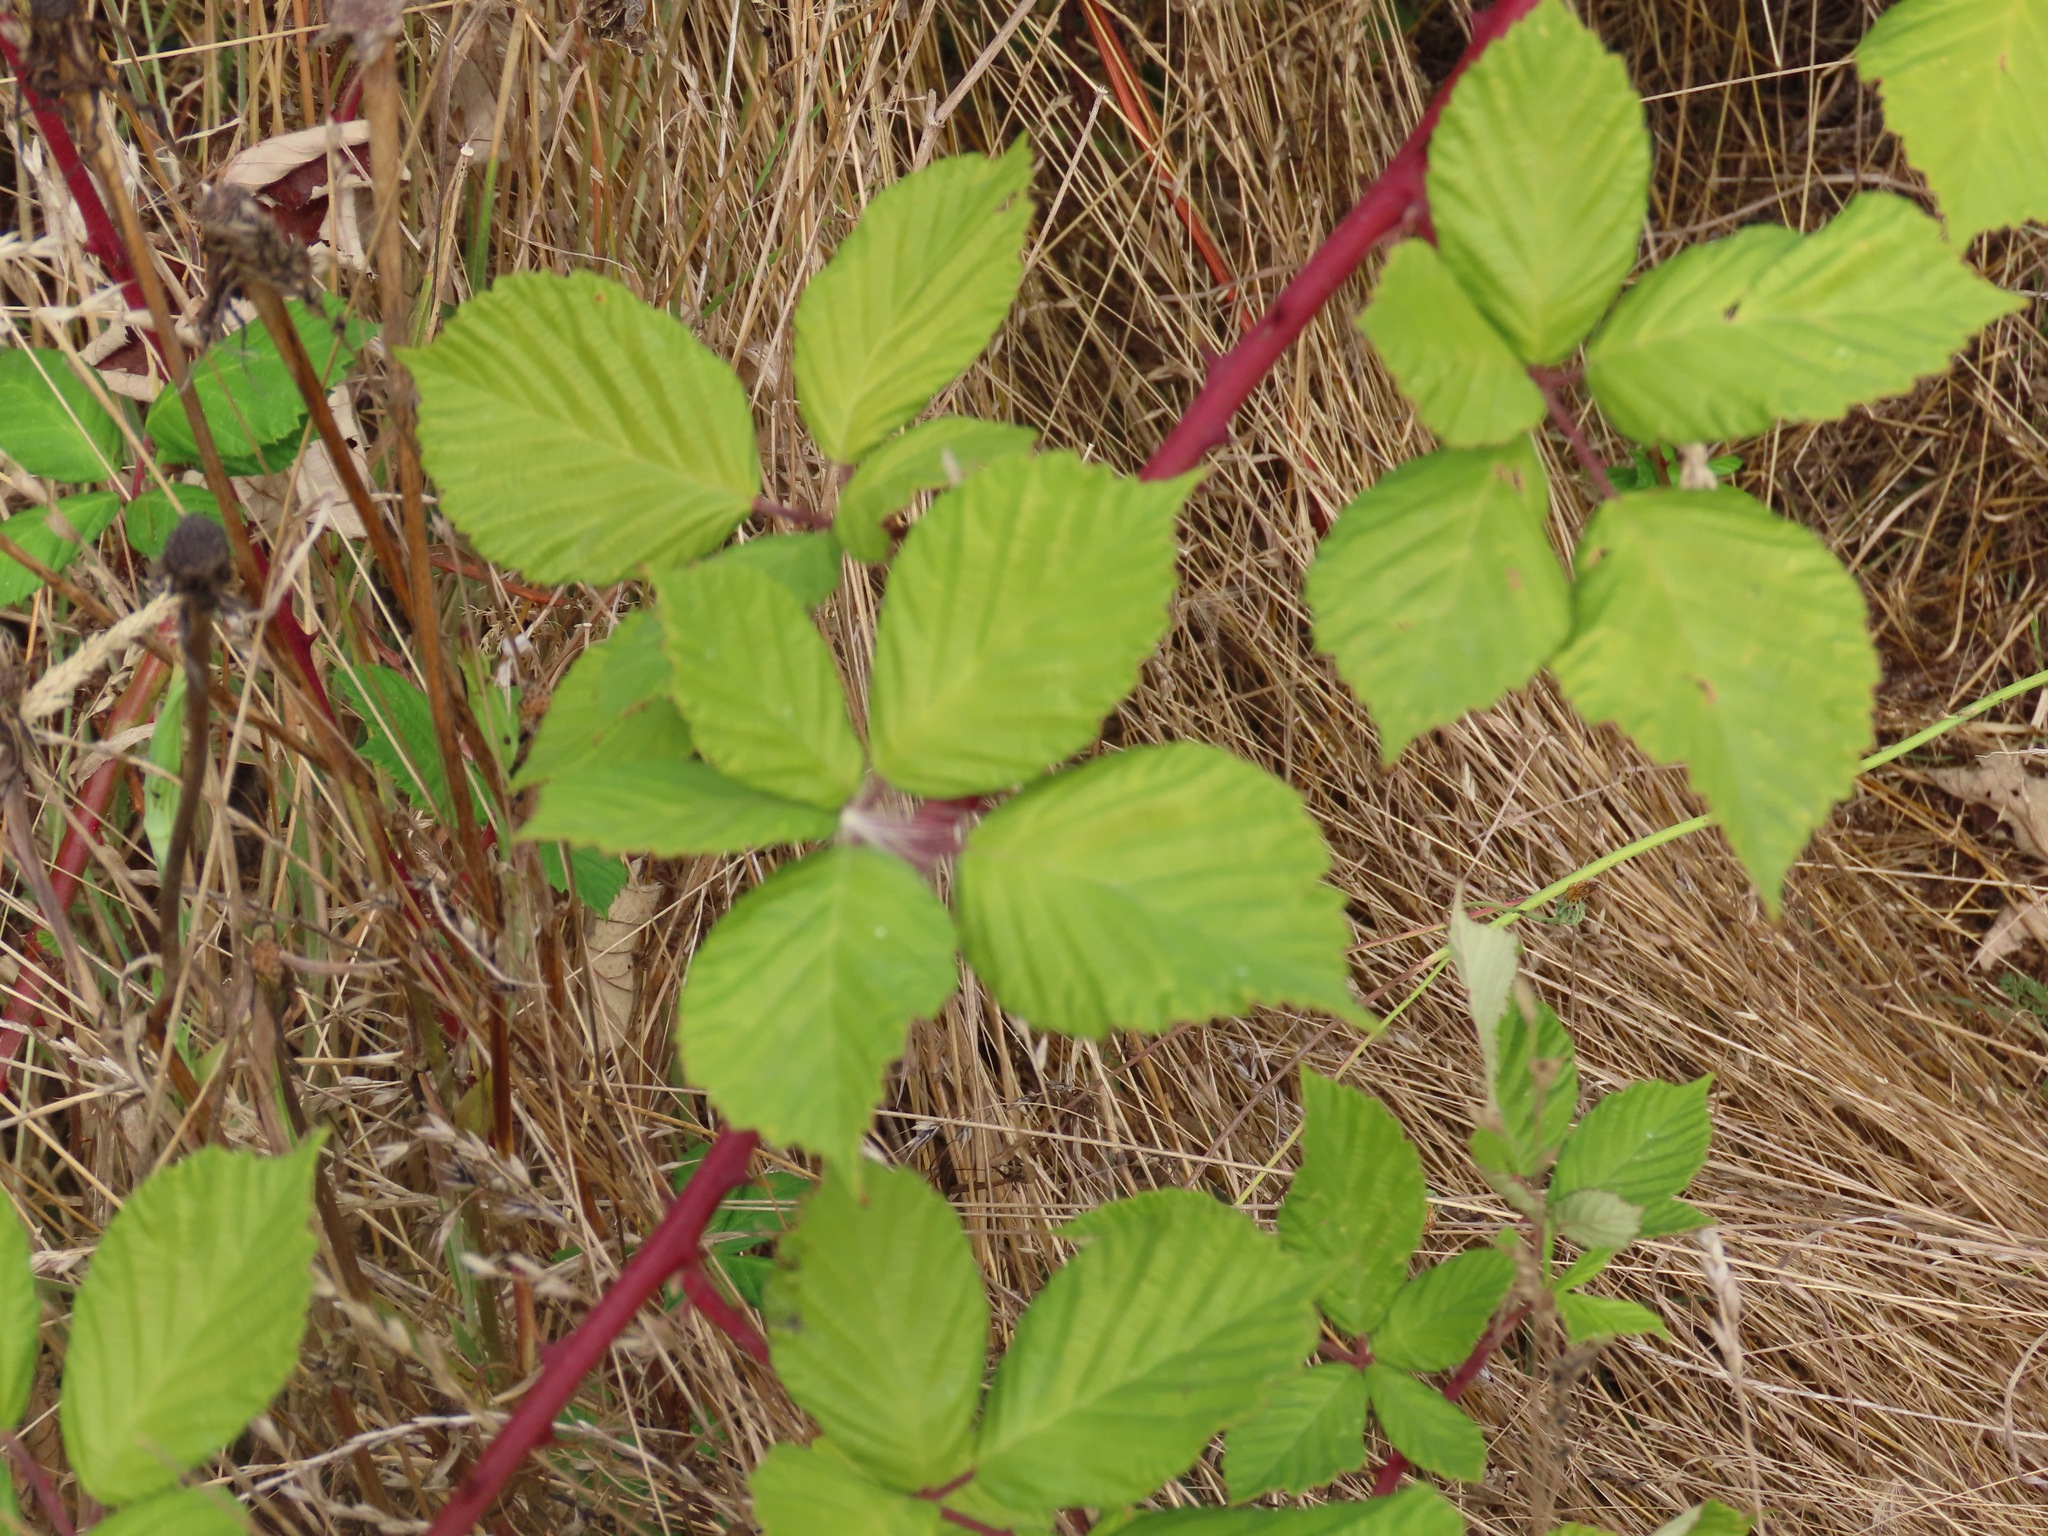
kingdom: Plantae
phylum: Tracheophyta
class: Magnoliopsida
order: Rosales
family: Rosaceae
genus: Rubus
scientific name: Rubus bifrons
